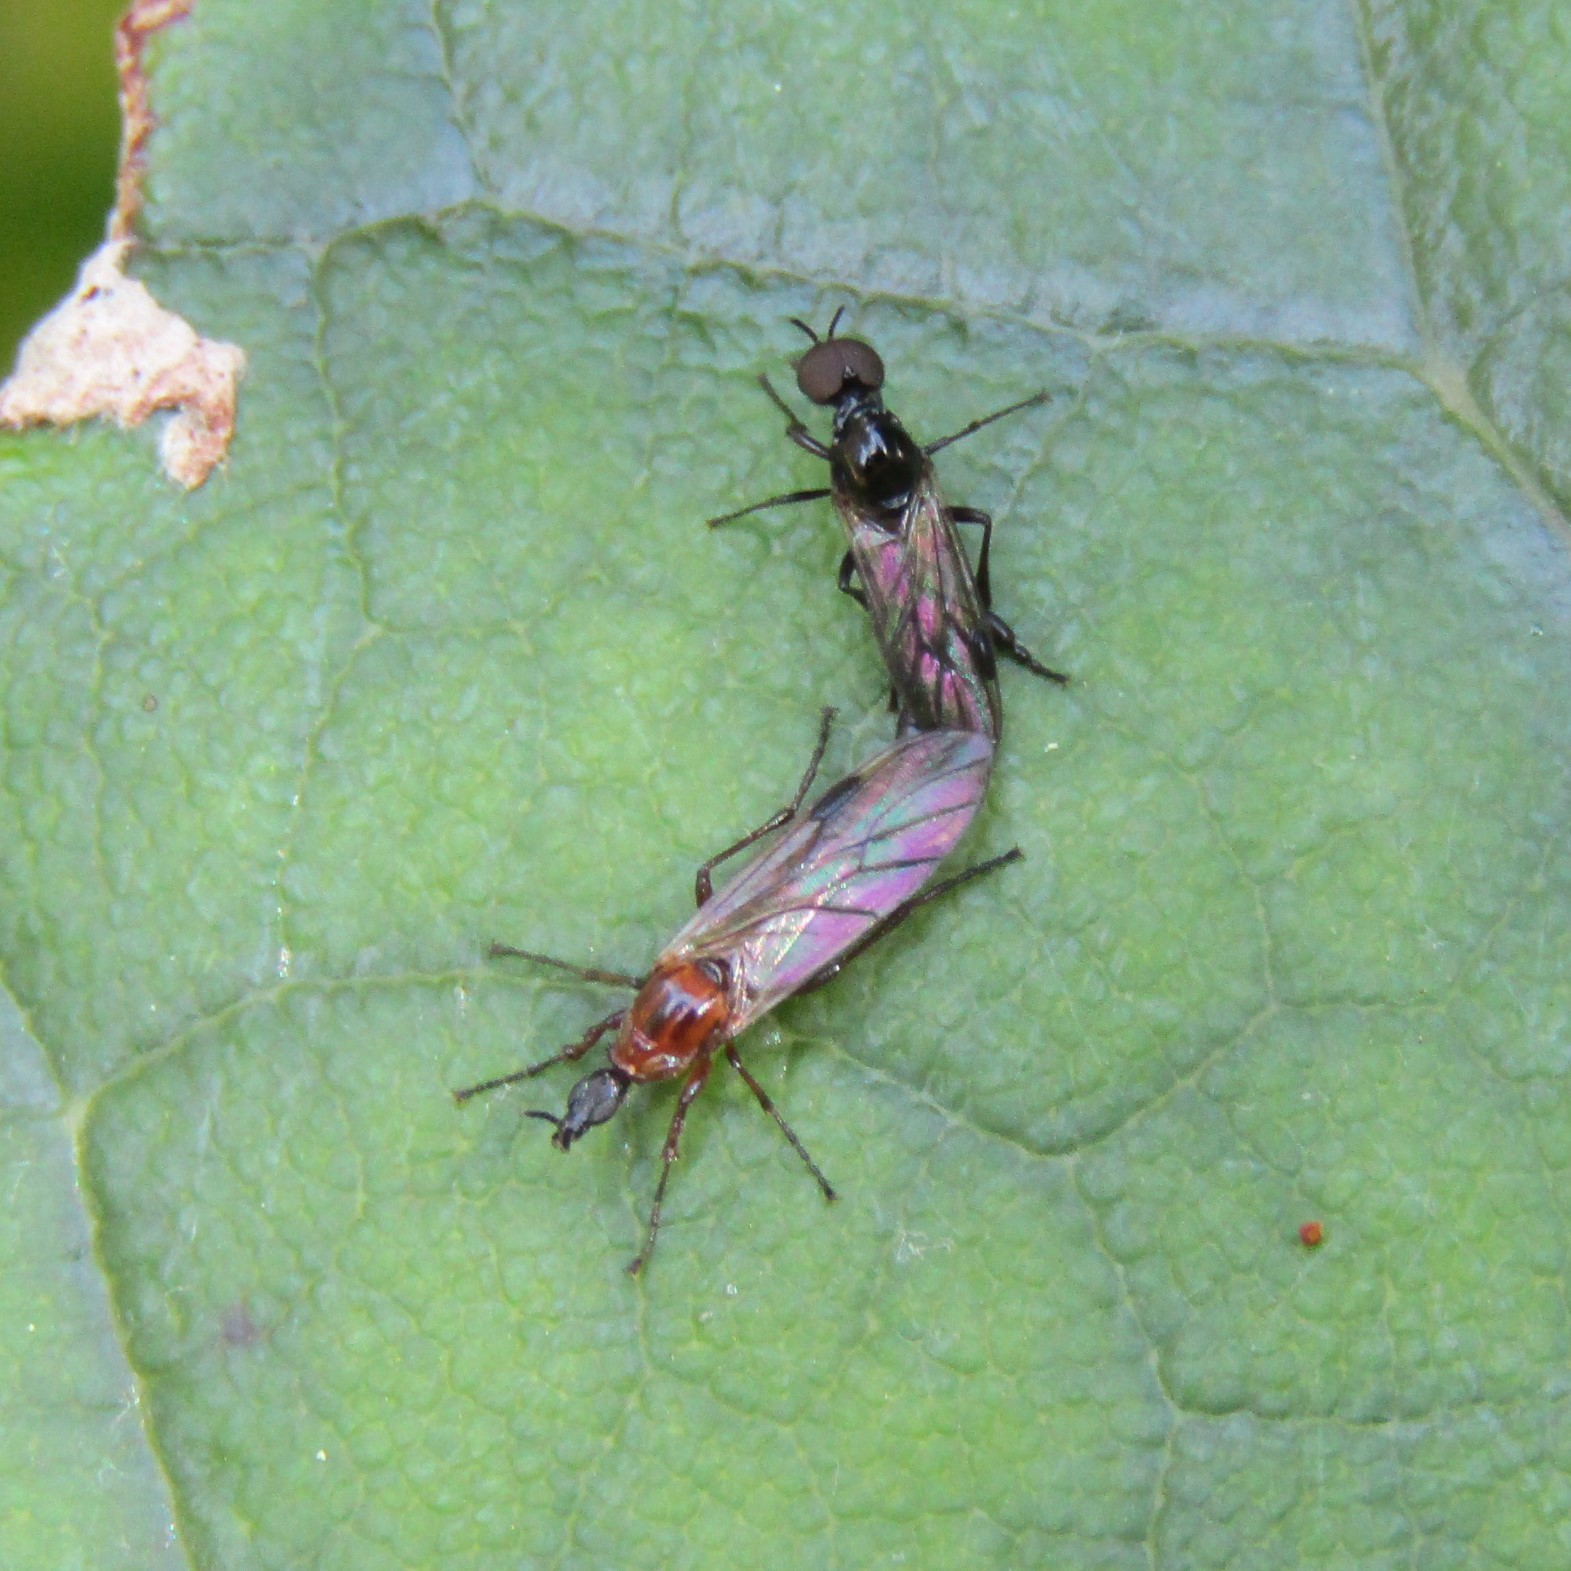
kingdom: Animalia
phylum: Arthropoda
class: Insecta
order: Diptera
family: Bibionidae
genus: Dilophus
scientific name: Dilophus segnis
